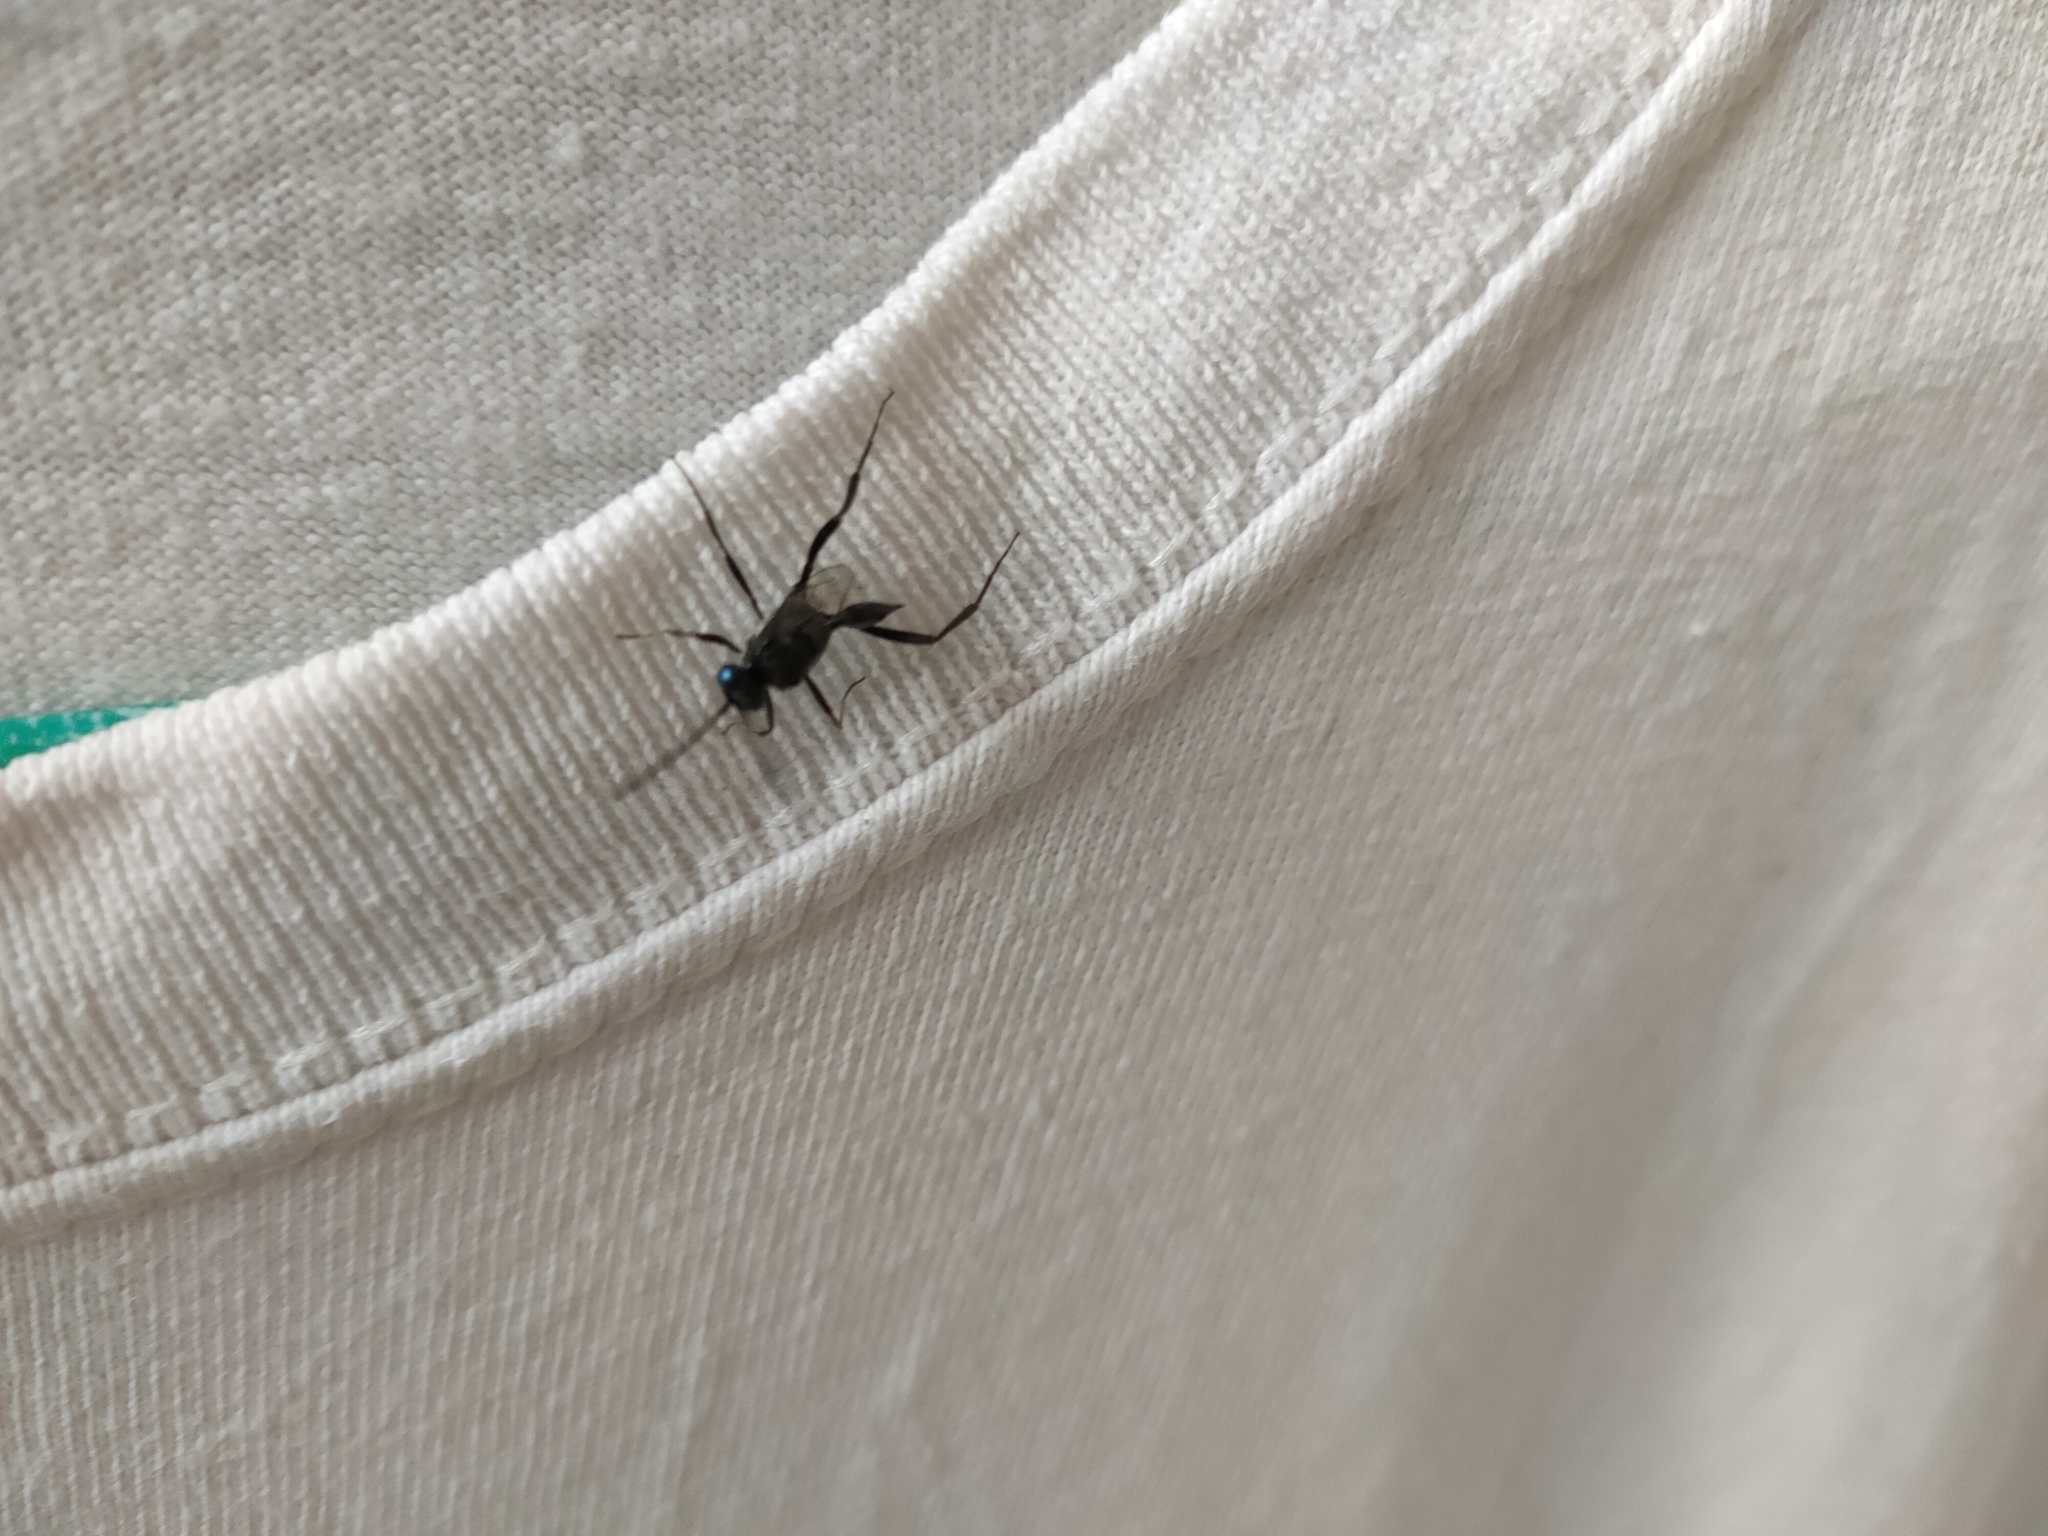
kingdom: Animalia
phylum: Arthropoda
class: Insecta
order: Hymenoptera
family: Evaniidae
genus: Evania
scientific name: Evania appendigaster
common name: Ensign wasp
